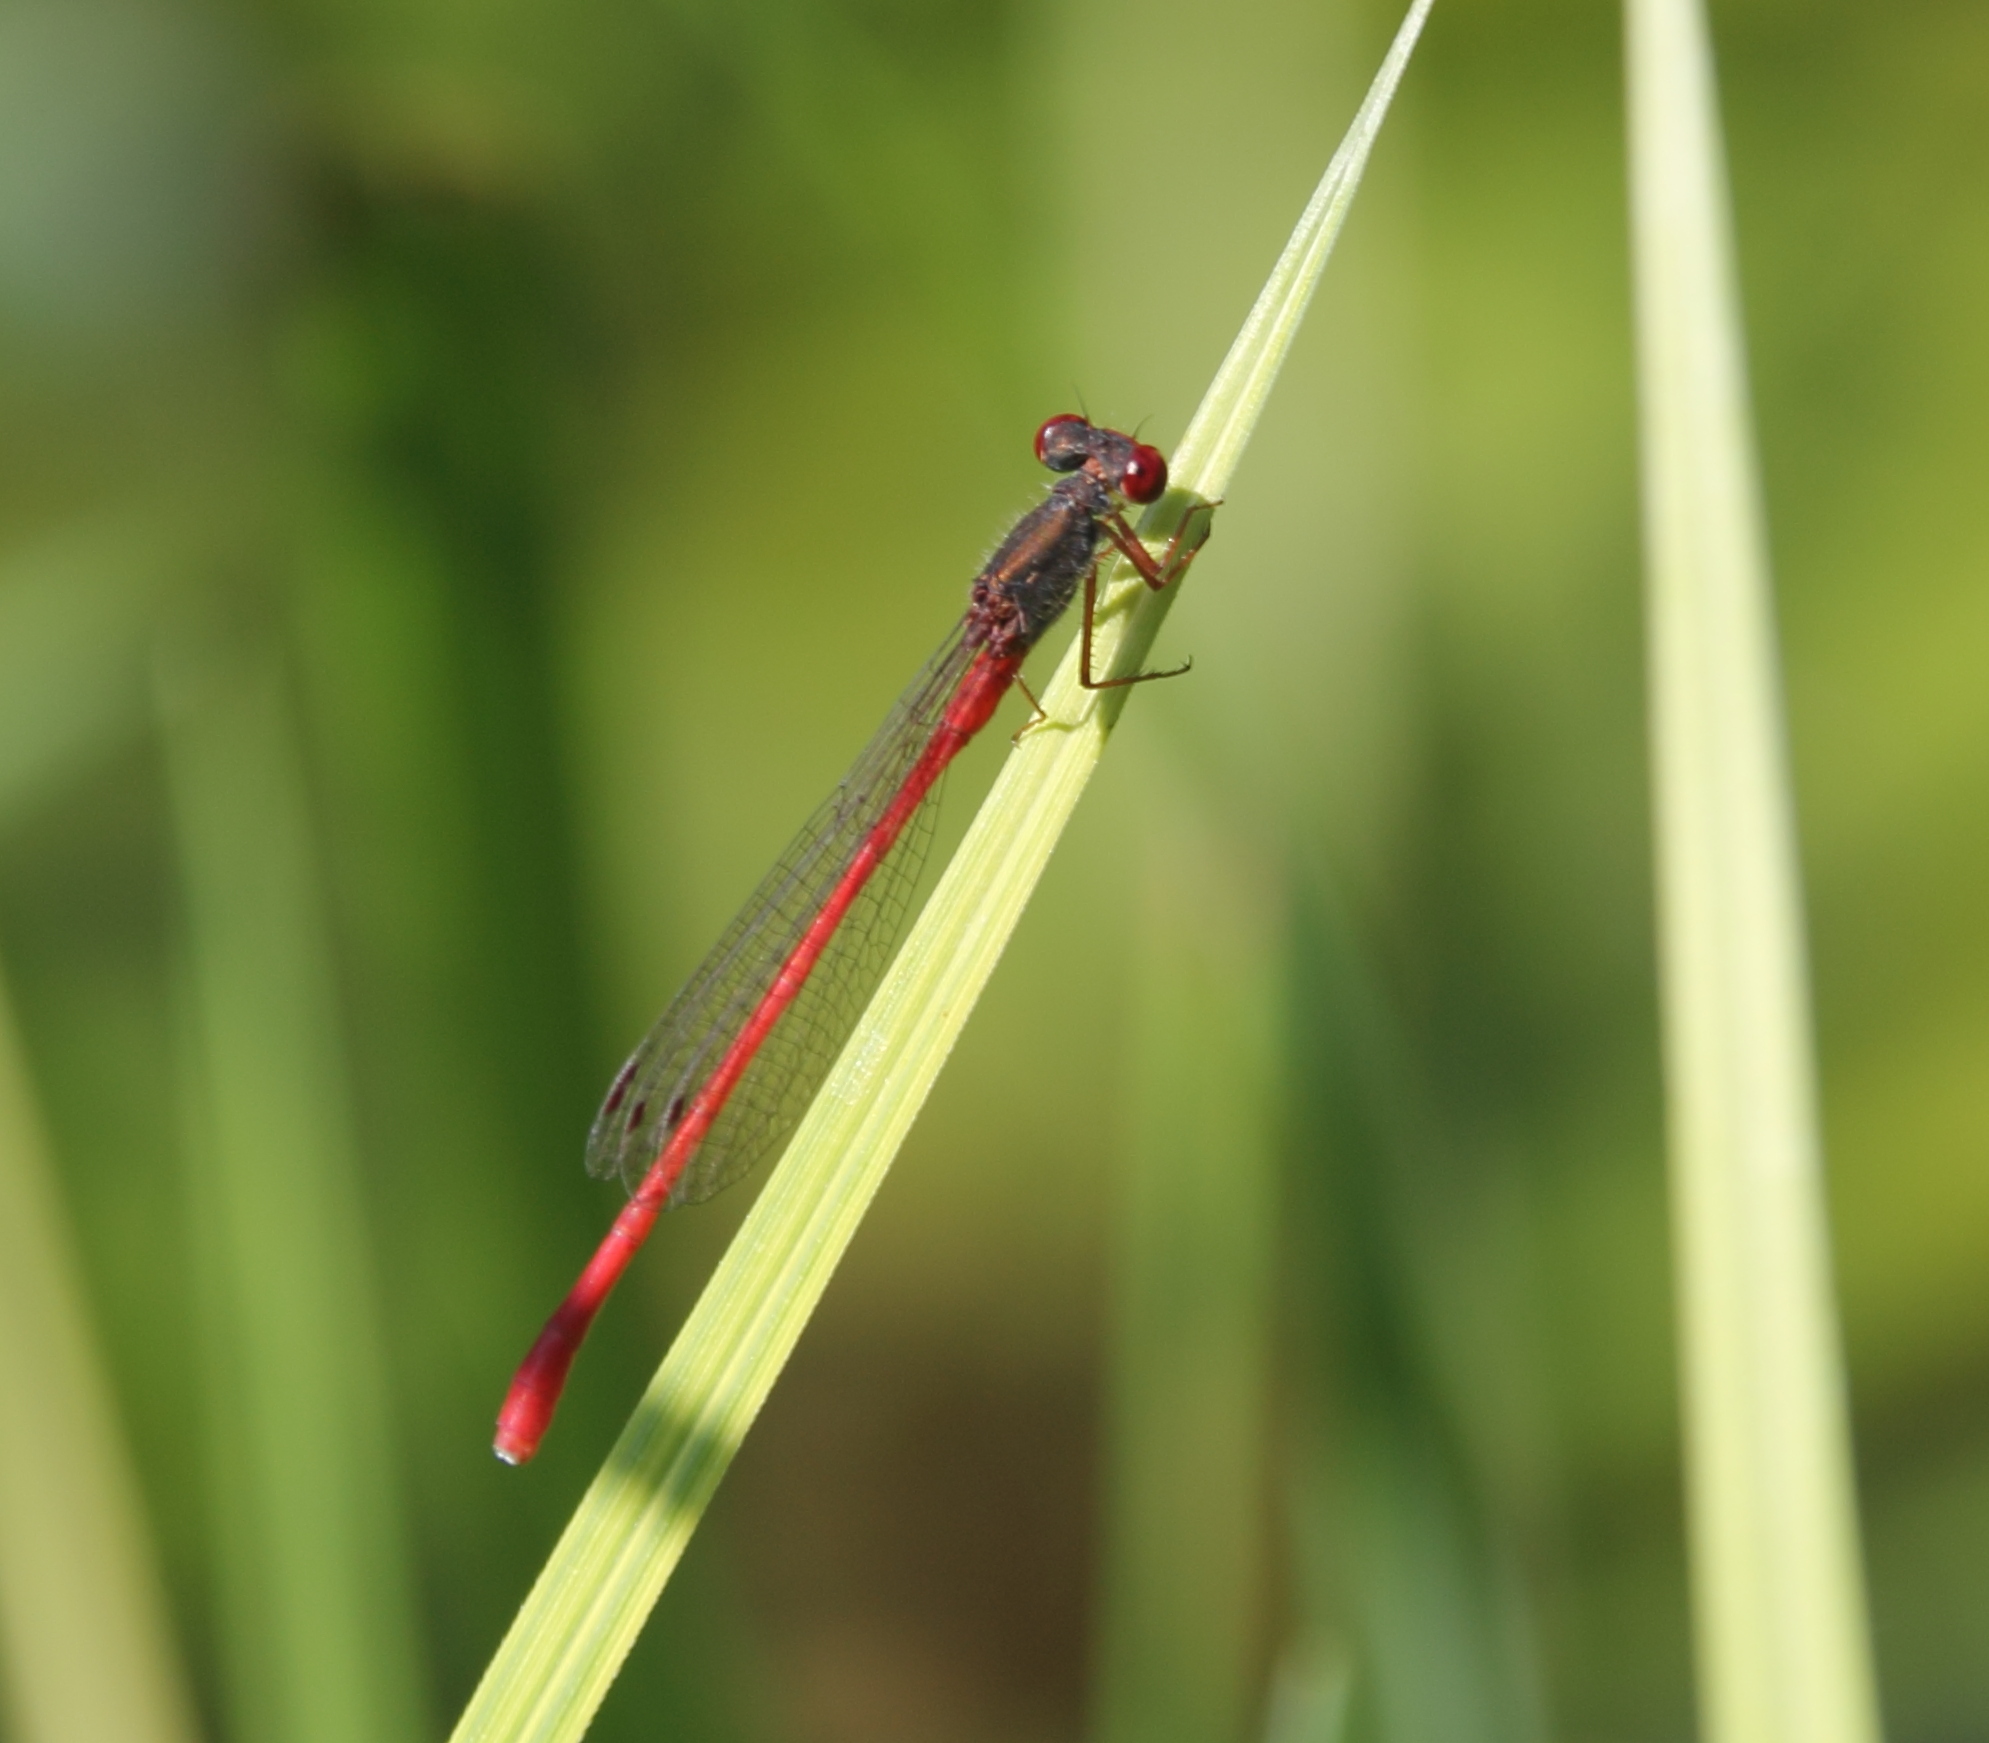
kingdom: Animalia
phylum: Arthropoda
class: Insecta
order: Odonata
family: Coenagrionidae
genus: Ceriagrion
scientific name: Ceriagrion tenellum
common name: Small red damselfly
